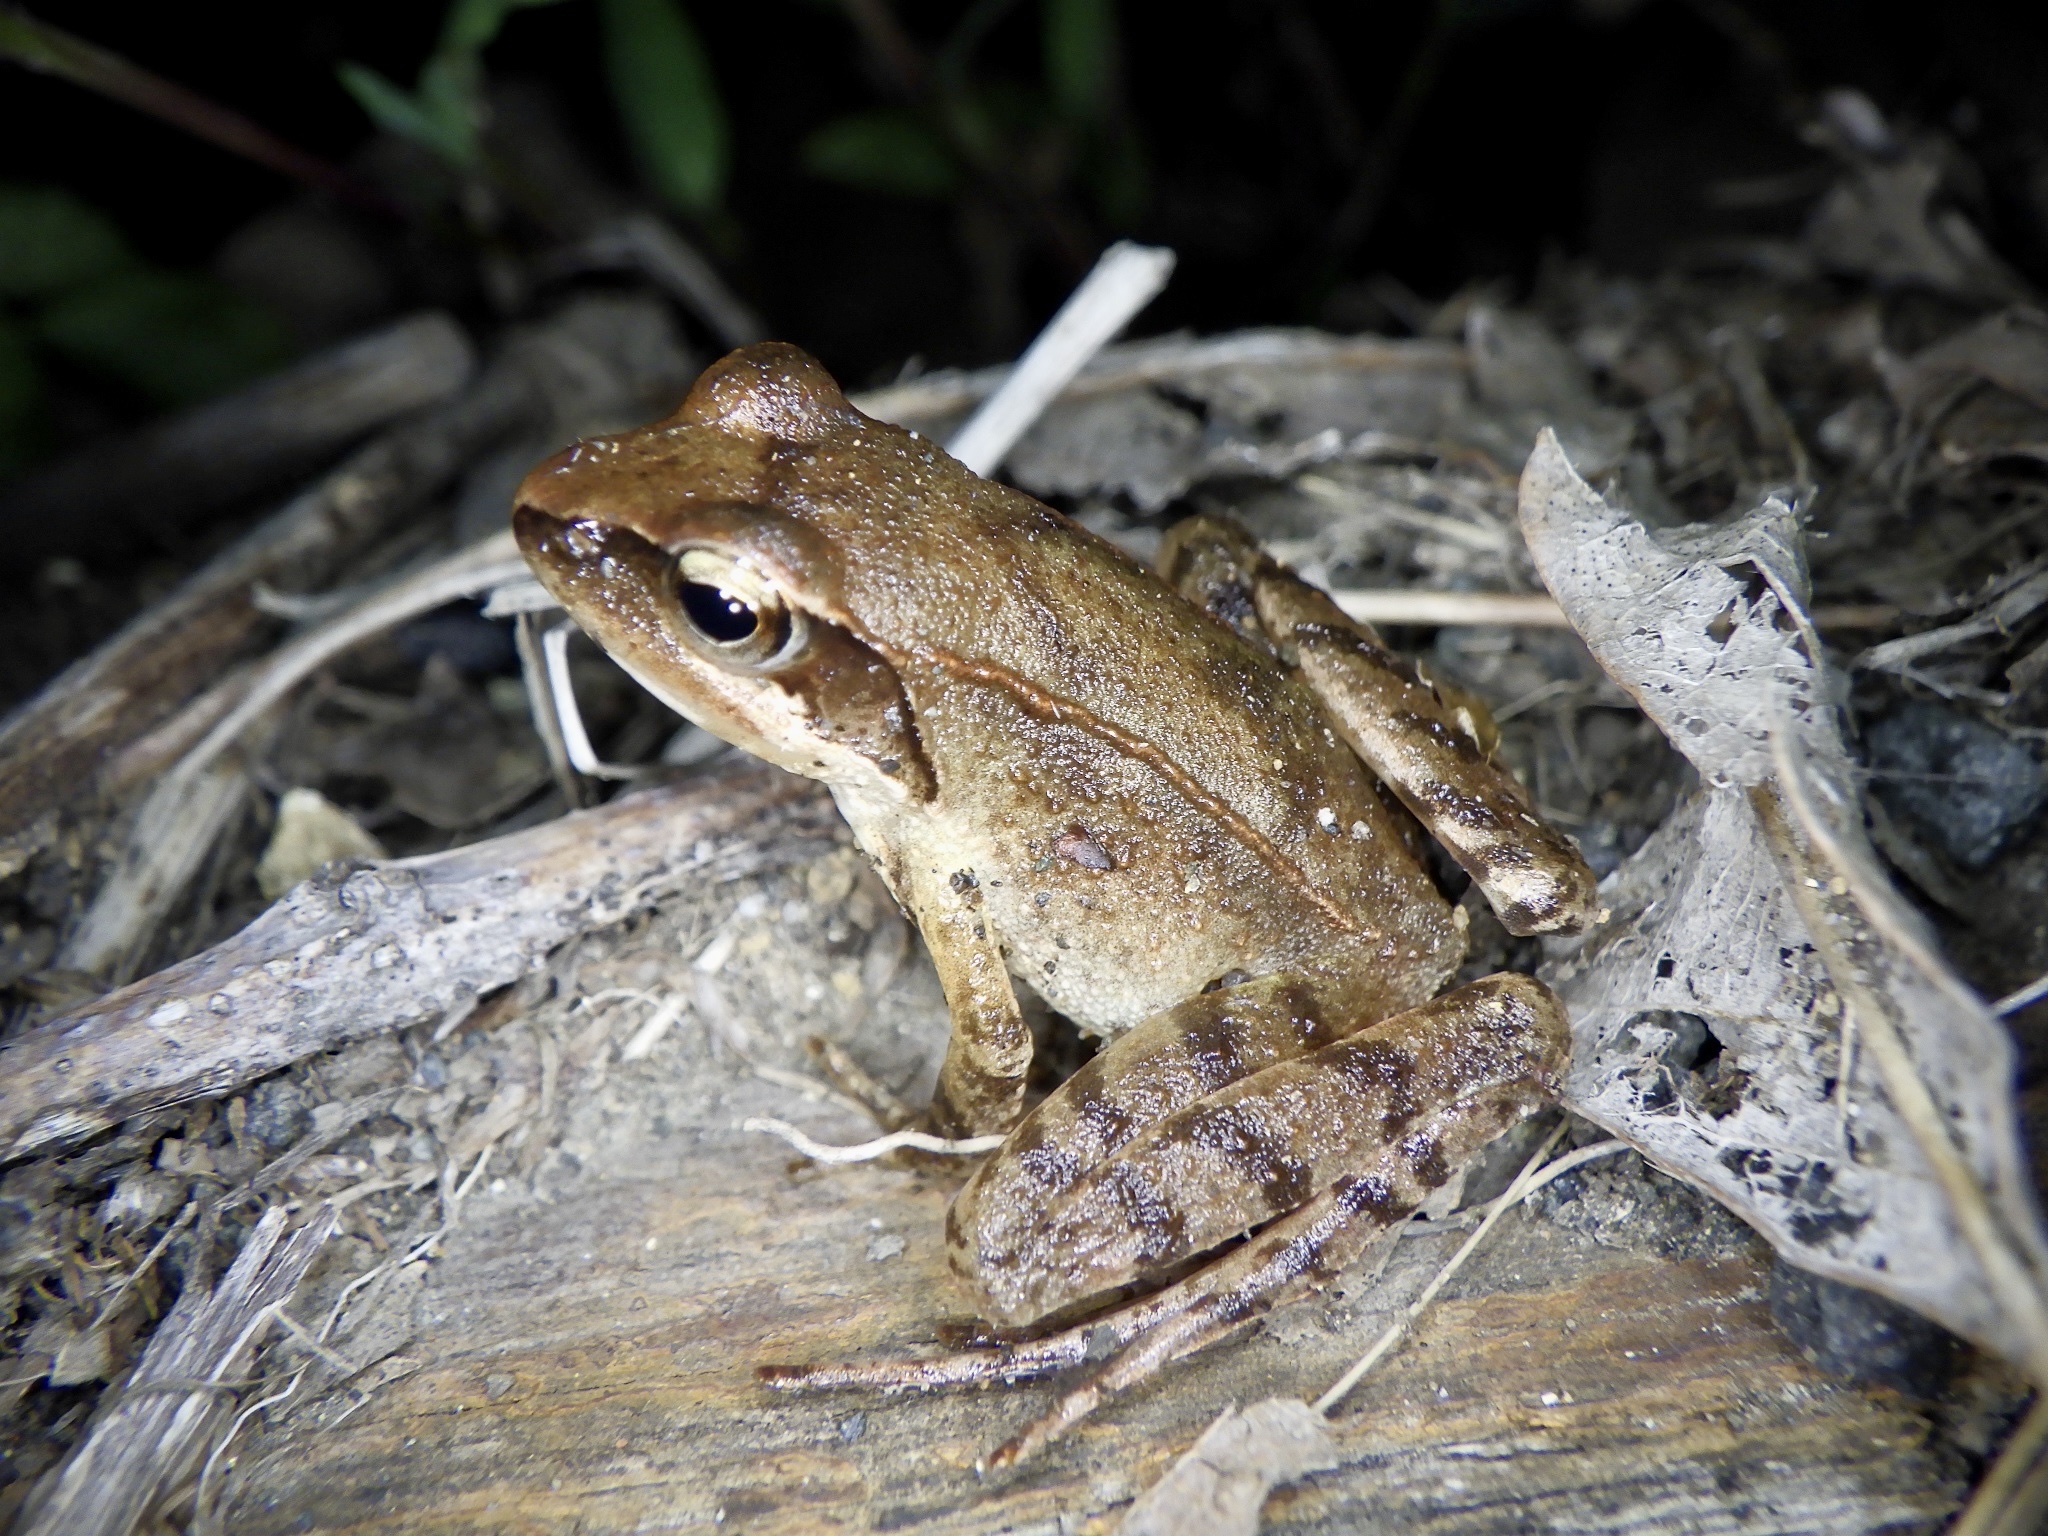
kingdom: Animalia
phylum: Chordata
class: Amphibia
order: Anura
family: Ranidae
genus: Rana
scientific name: Rana japonica
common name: Japanese brown frog
